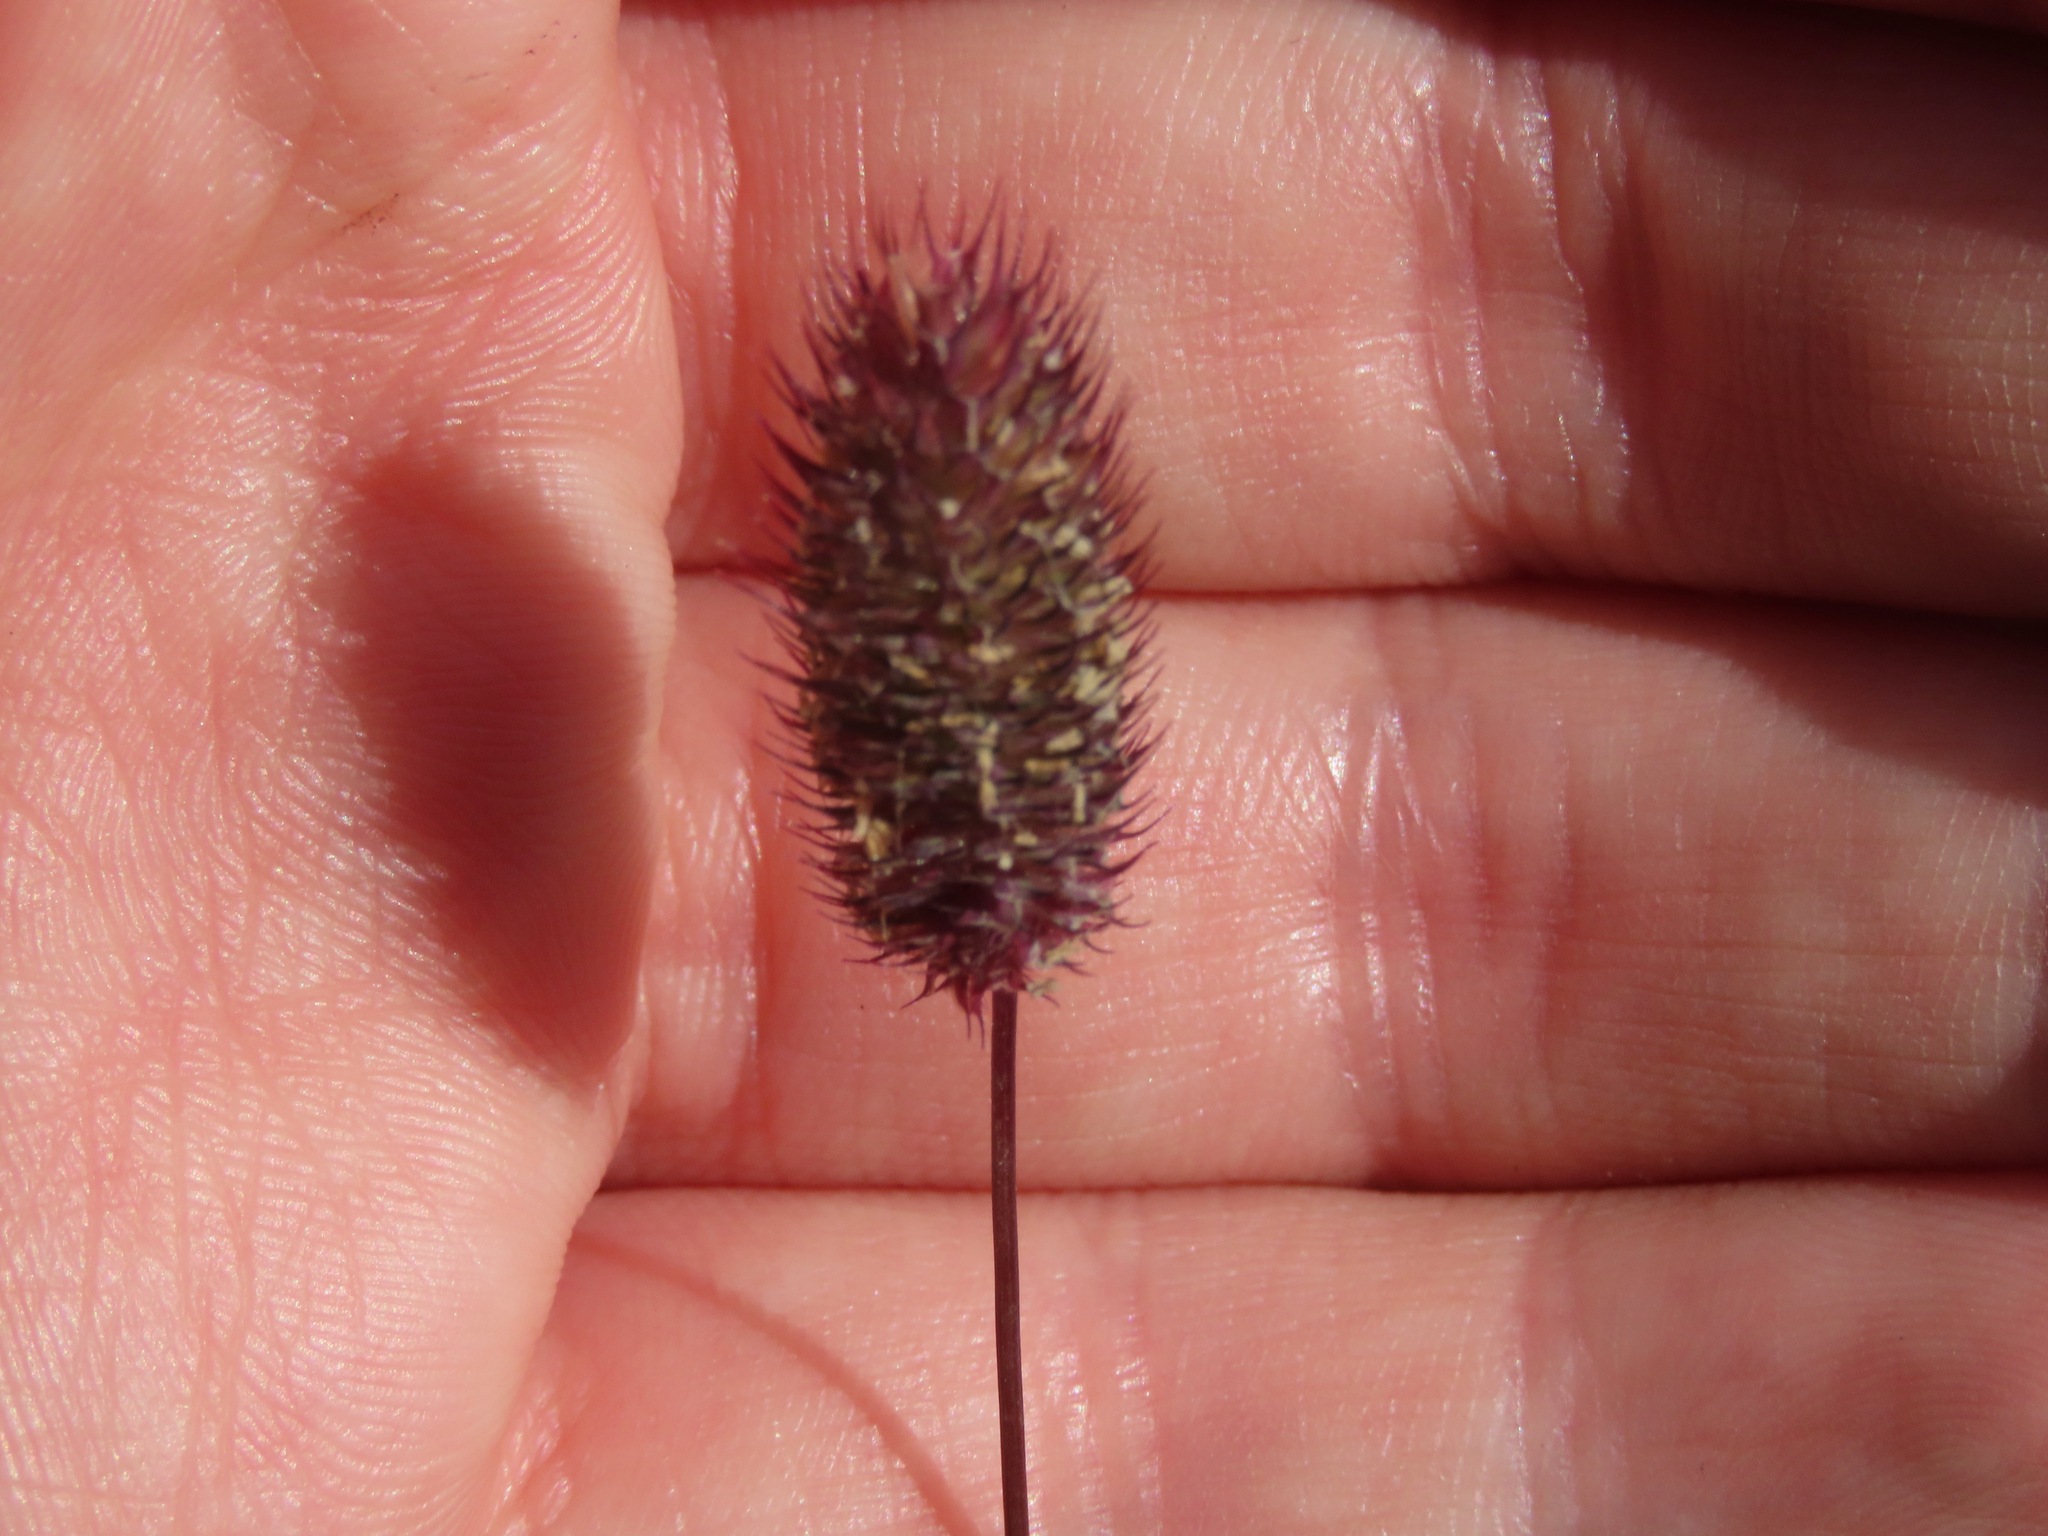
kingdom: Plantae
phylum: Tracheophyta
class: Liliopsida
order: Poales
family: Poaceae
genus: Phleum
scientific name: Phleum alpinum
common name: Alpine cat's-tail
